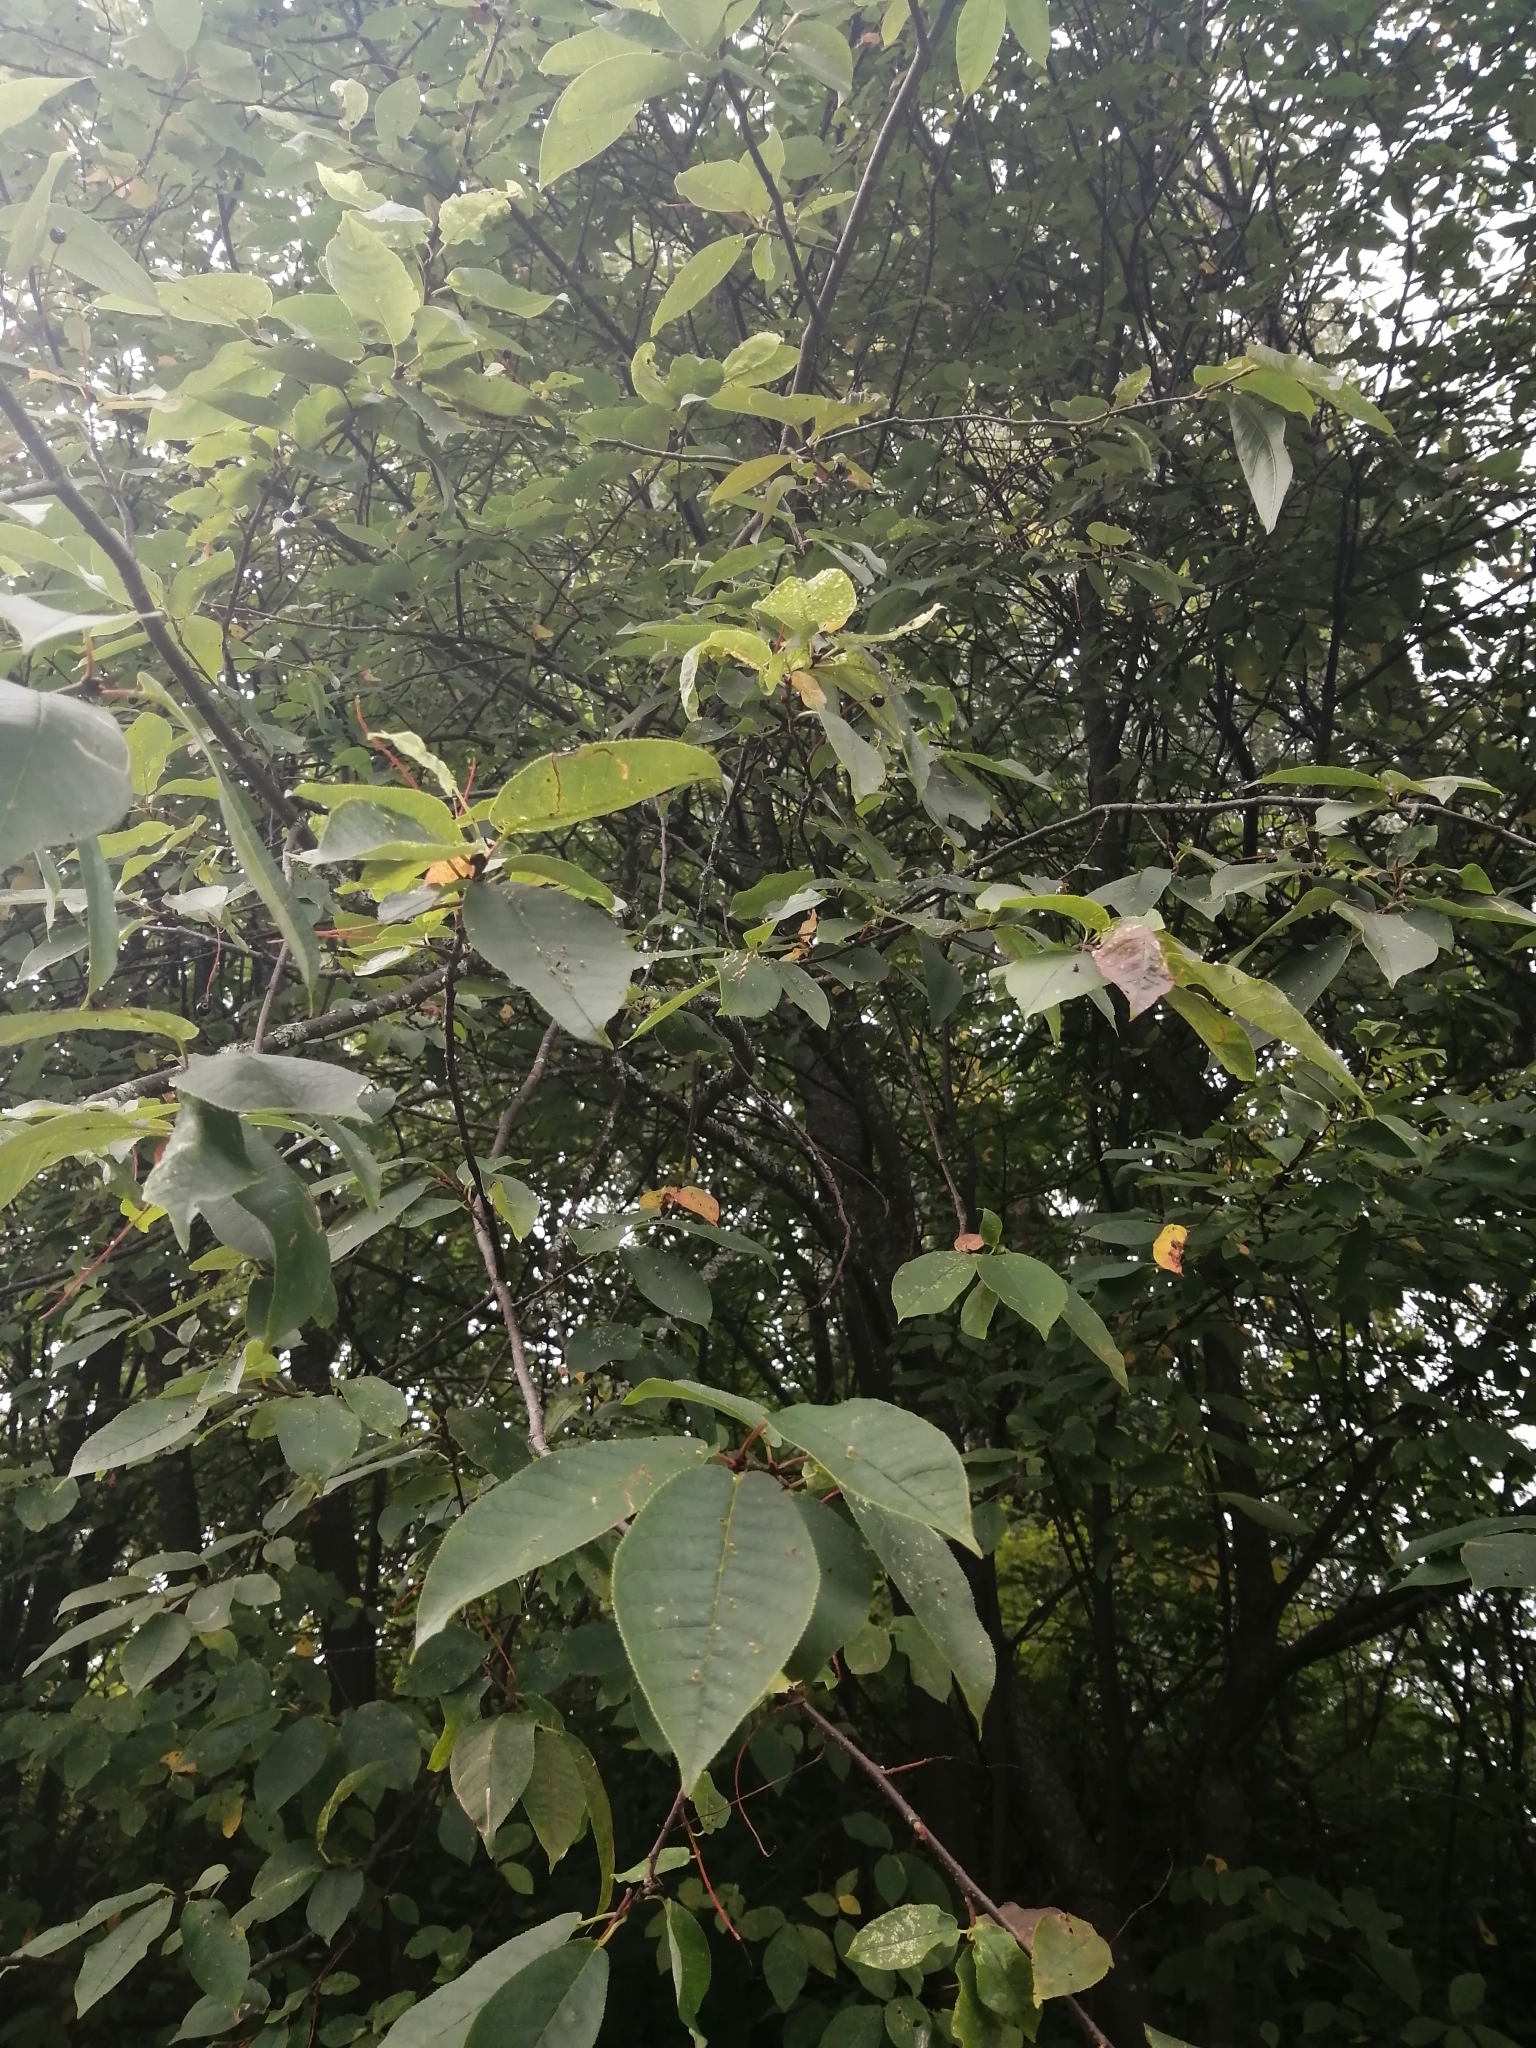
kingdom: Plantae
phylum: Tracheophyta
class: Magnoliopsida
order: Rosales
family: Rosaceae
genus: Prunus
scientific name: Prunus padus
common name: Bird cherry
